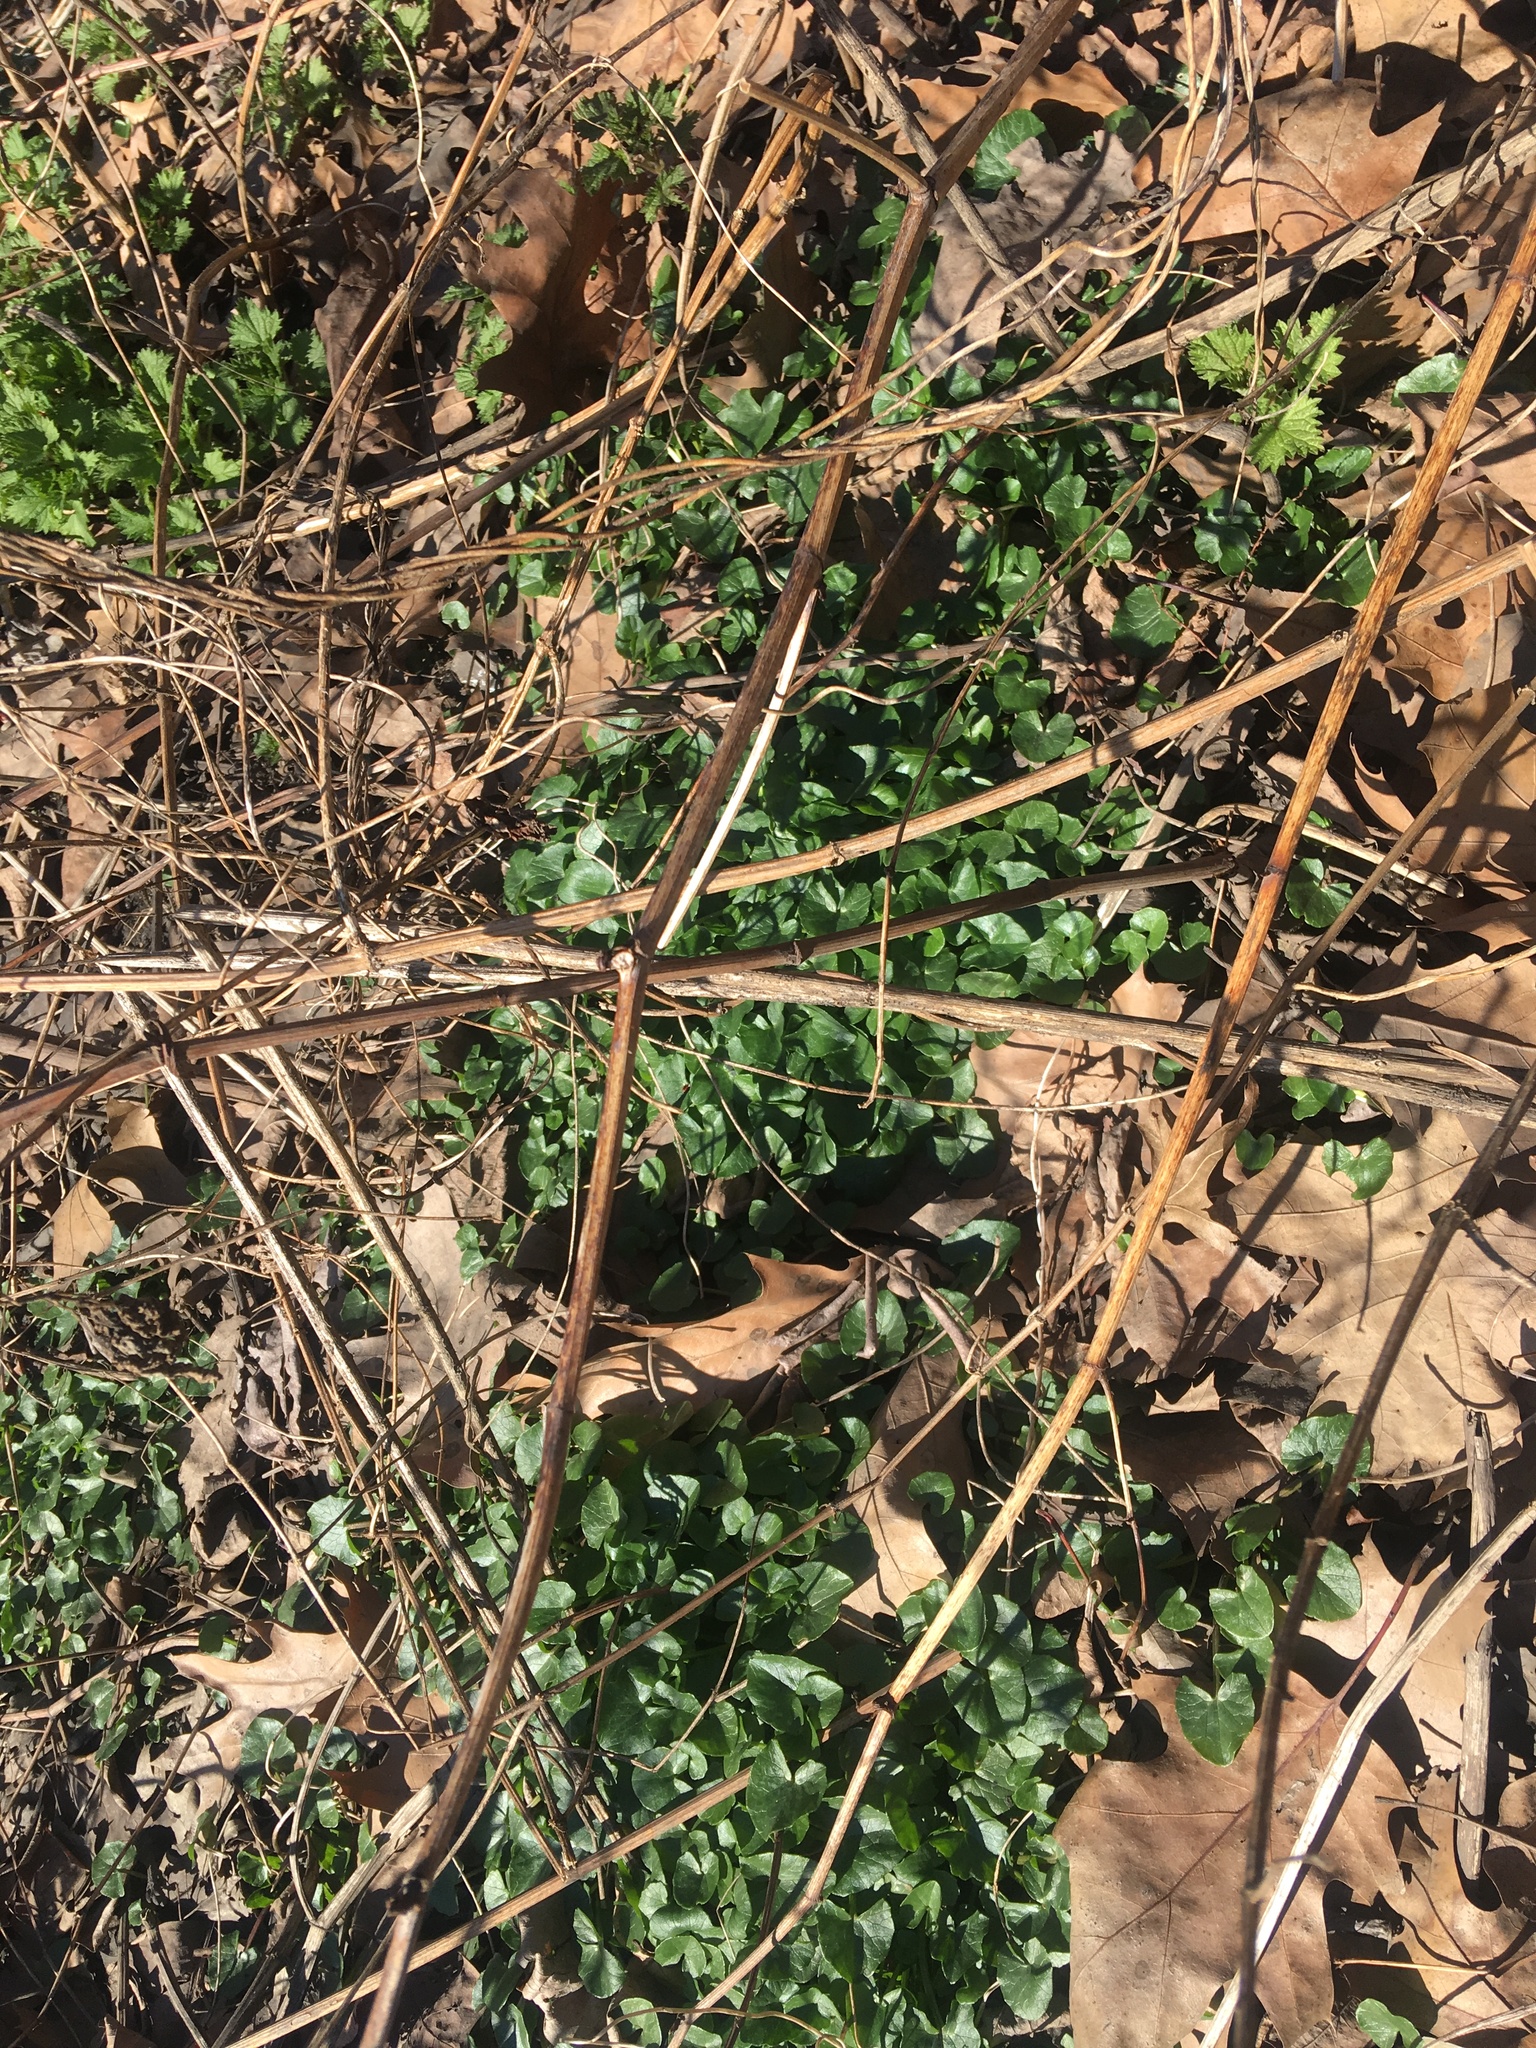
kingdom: Plantae
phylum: Tracheophyta
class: Magnoliopsida
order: Ranunculales
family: Ranunculaceae
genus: Ficaria
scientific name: Ficaria verna
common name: Lesser celandine
